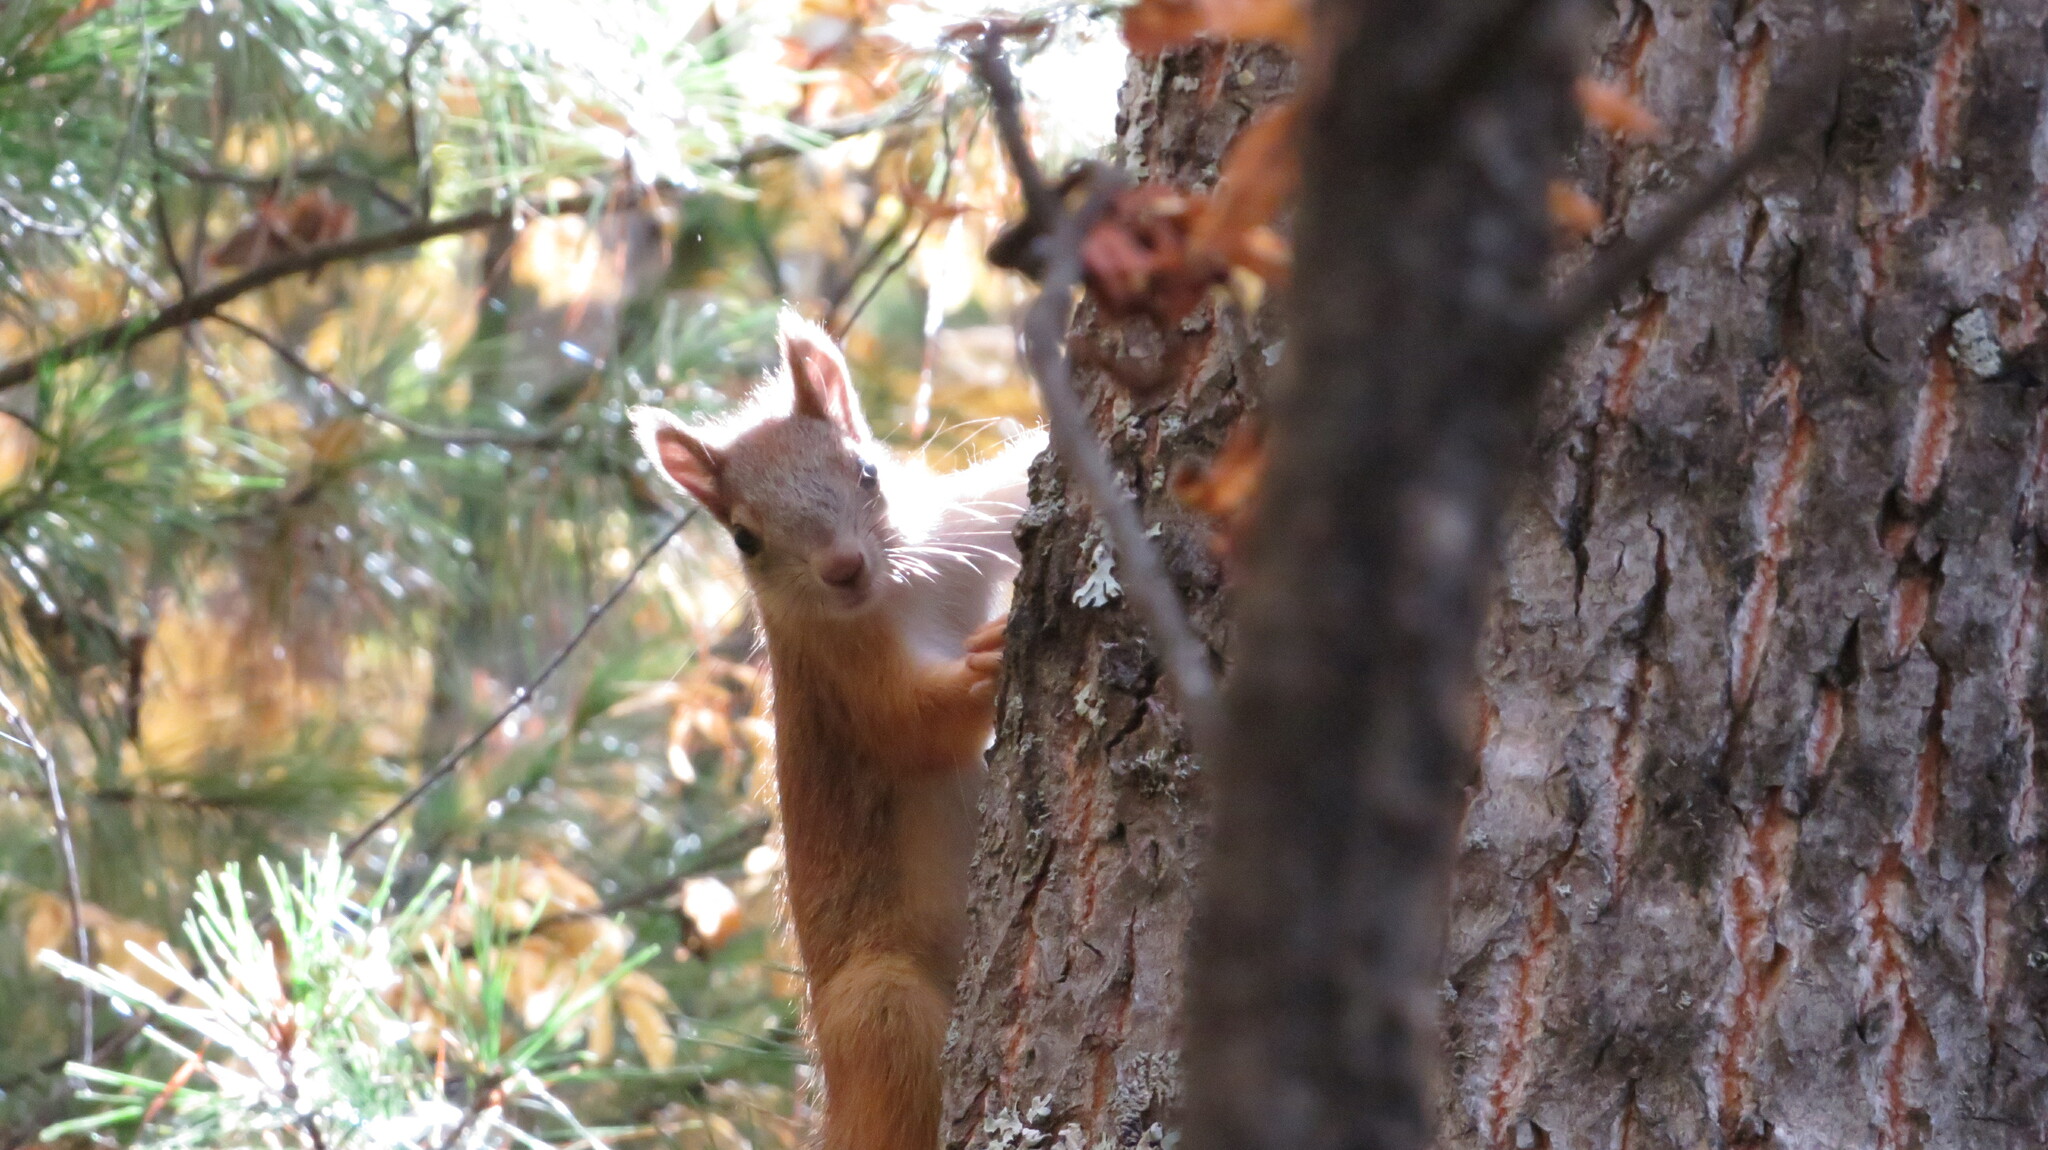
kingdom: Animalia
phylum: Chordata
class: Mammalia
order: Rodentia
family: Sciuridae
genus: Sciurus
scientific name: Sciurus vulgaris
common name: Eurasian red squirrel
